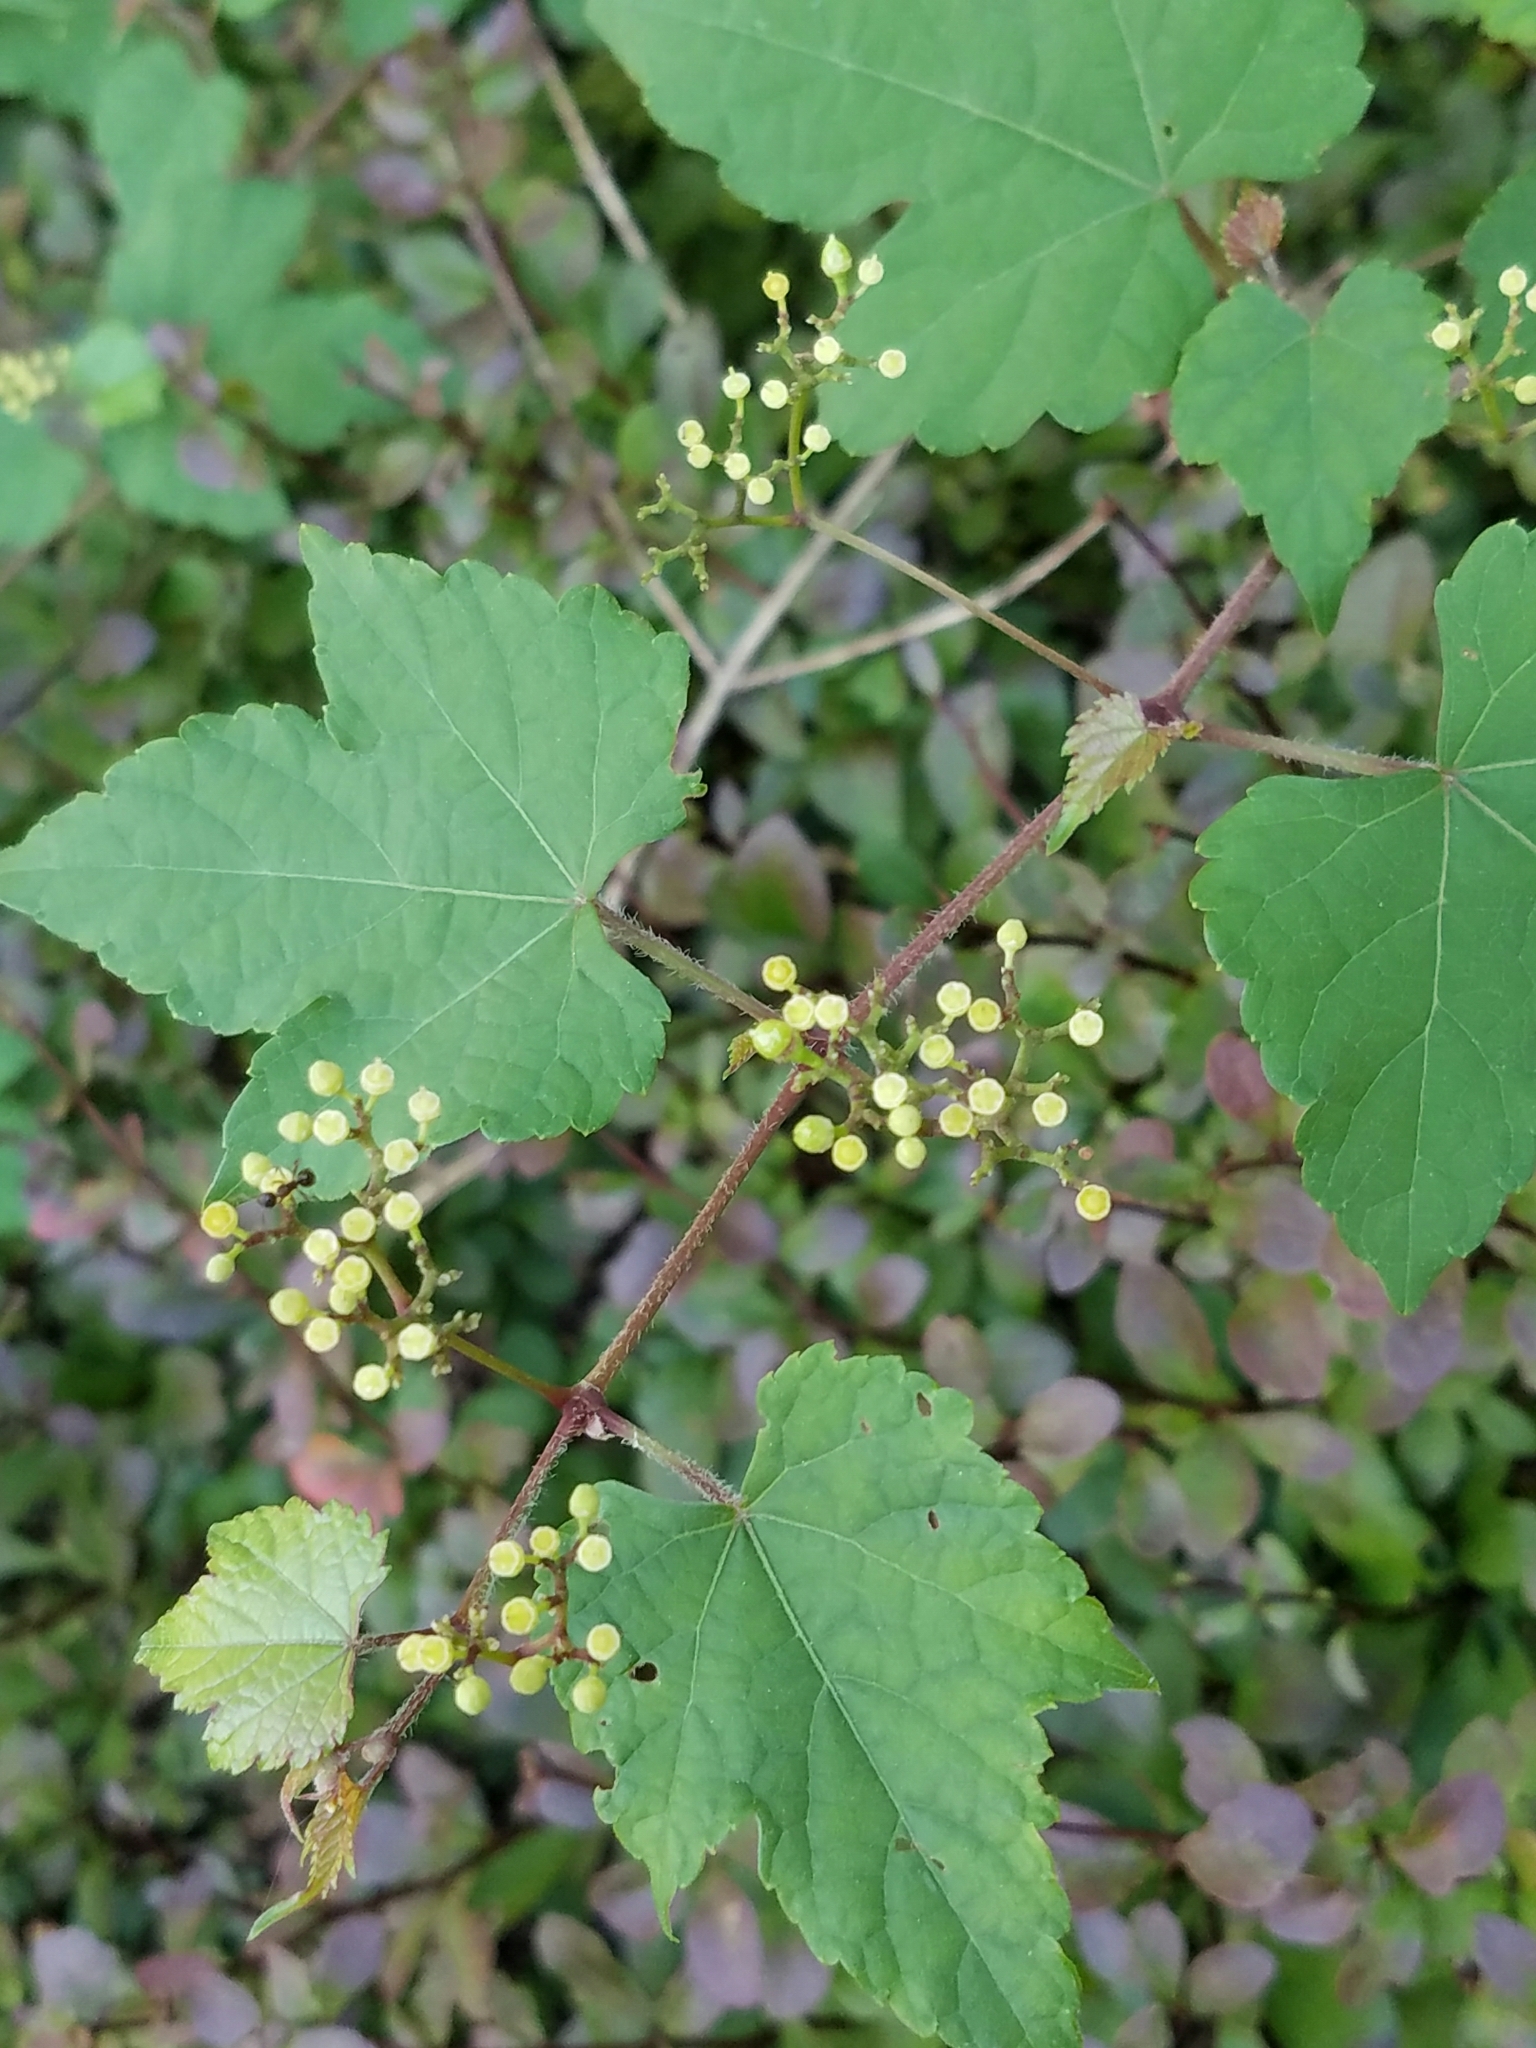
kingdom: Plantae
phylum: Tracheophyta
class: Magnoliopsida
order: Vitales
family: Vitaceae
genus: Ampelopsis
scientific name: Ampelopsis glandulosa
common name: Amur peppervine
